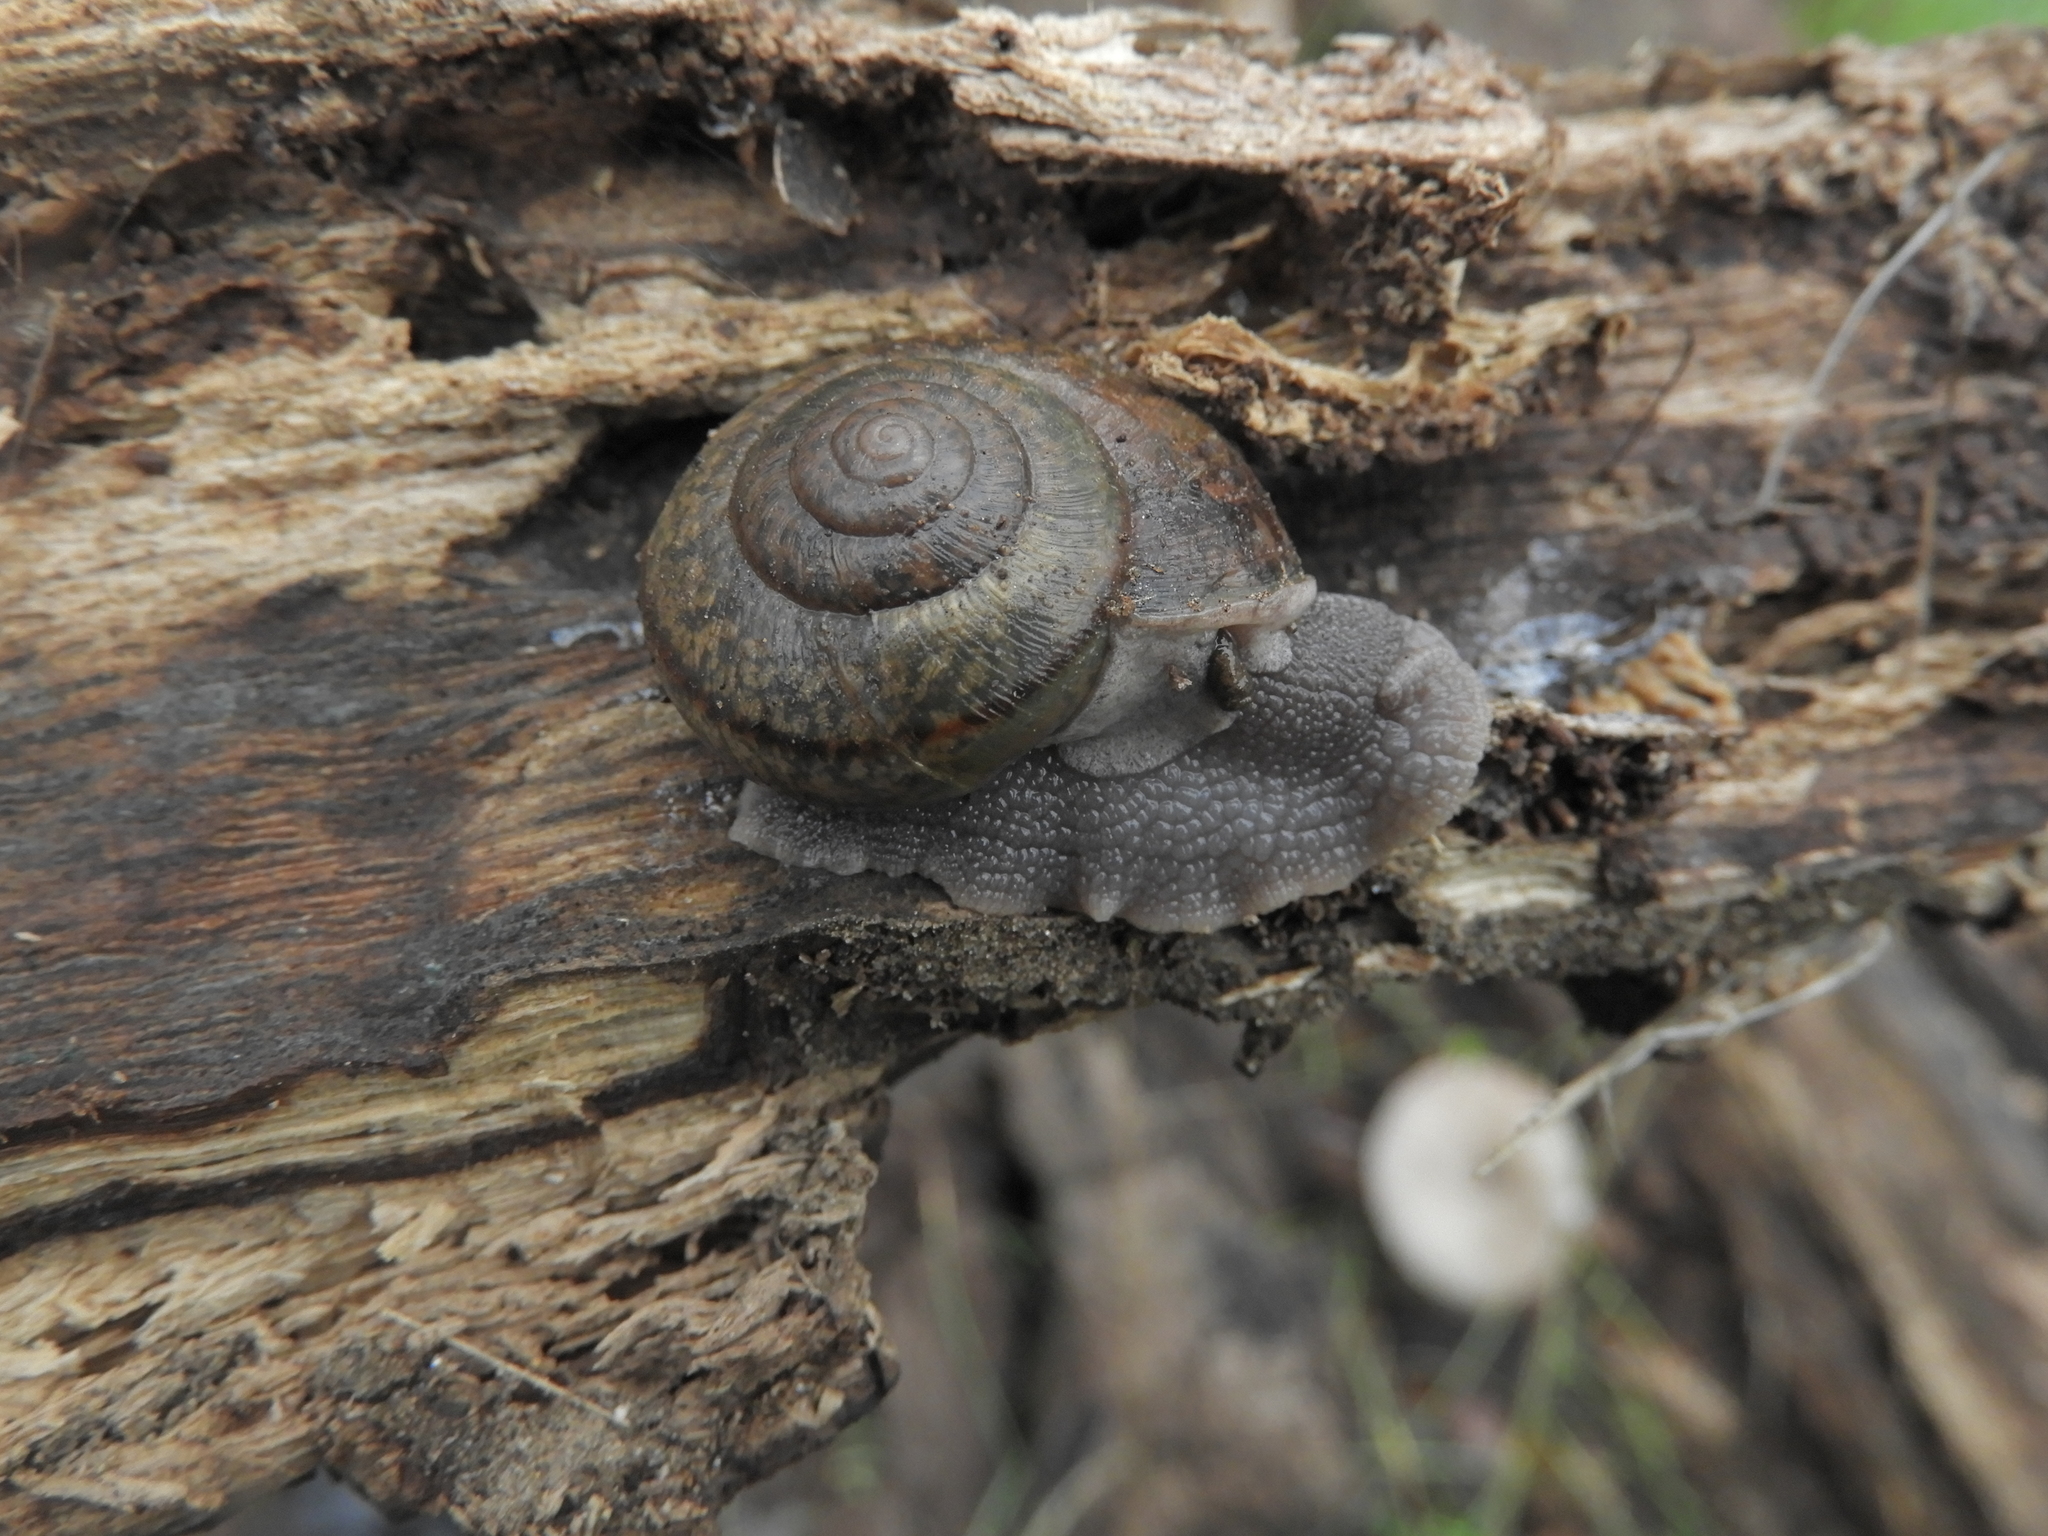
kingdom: Animalia
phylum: Mollusca
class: Gastropoda
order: Stylommatophora
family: Xanthonychidae
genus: Helminthoglypta
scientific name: Helminthoglypta cypreophila
